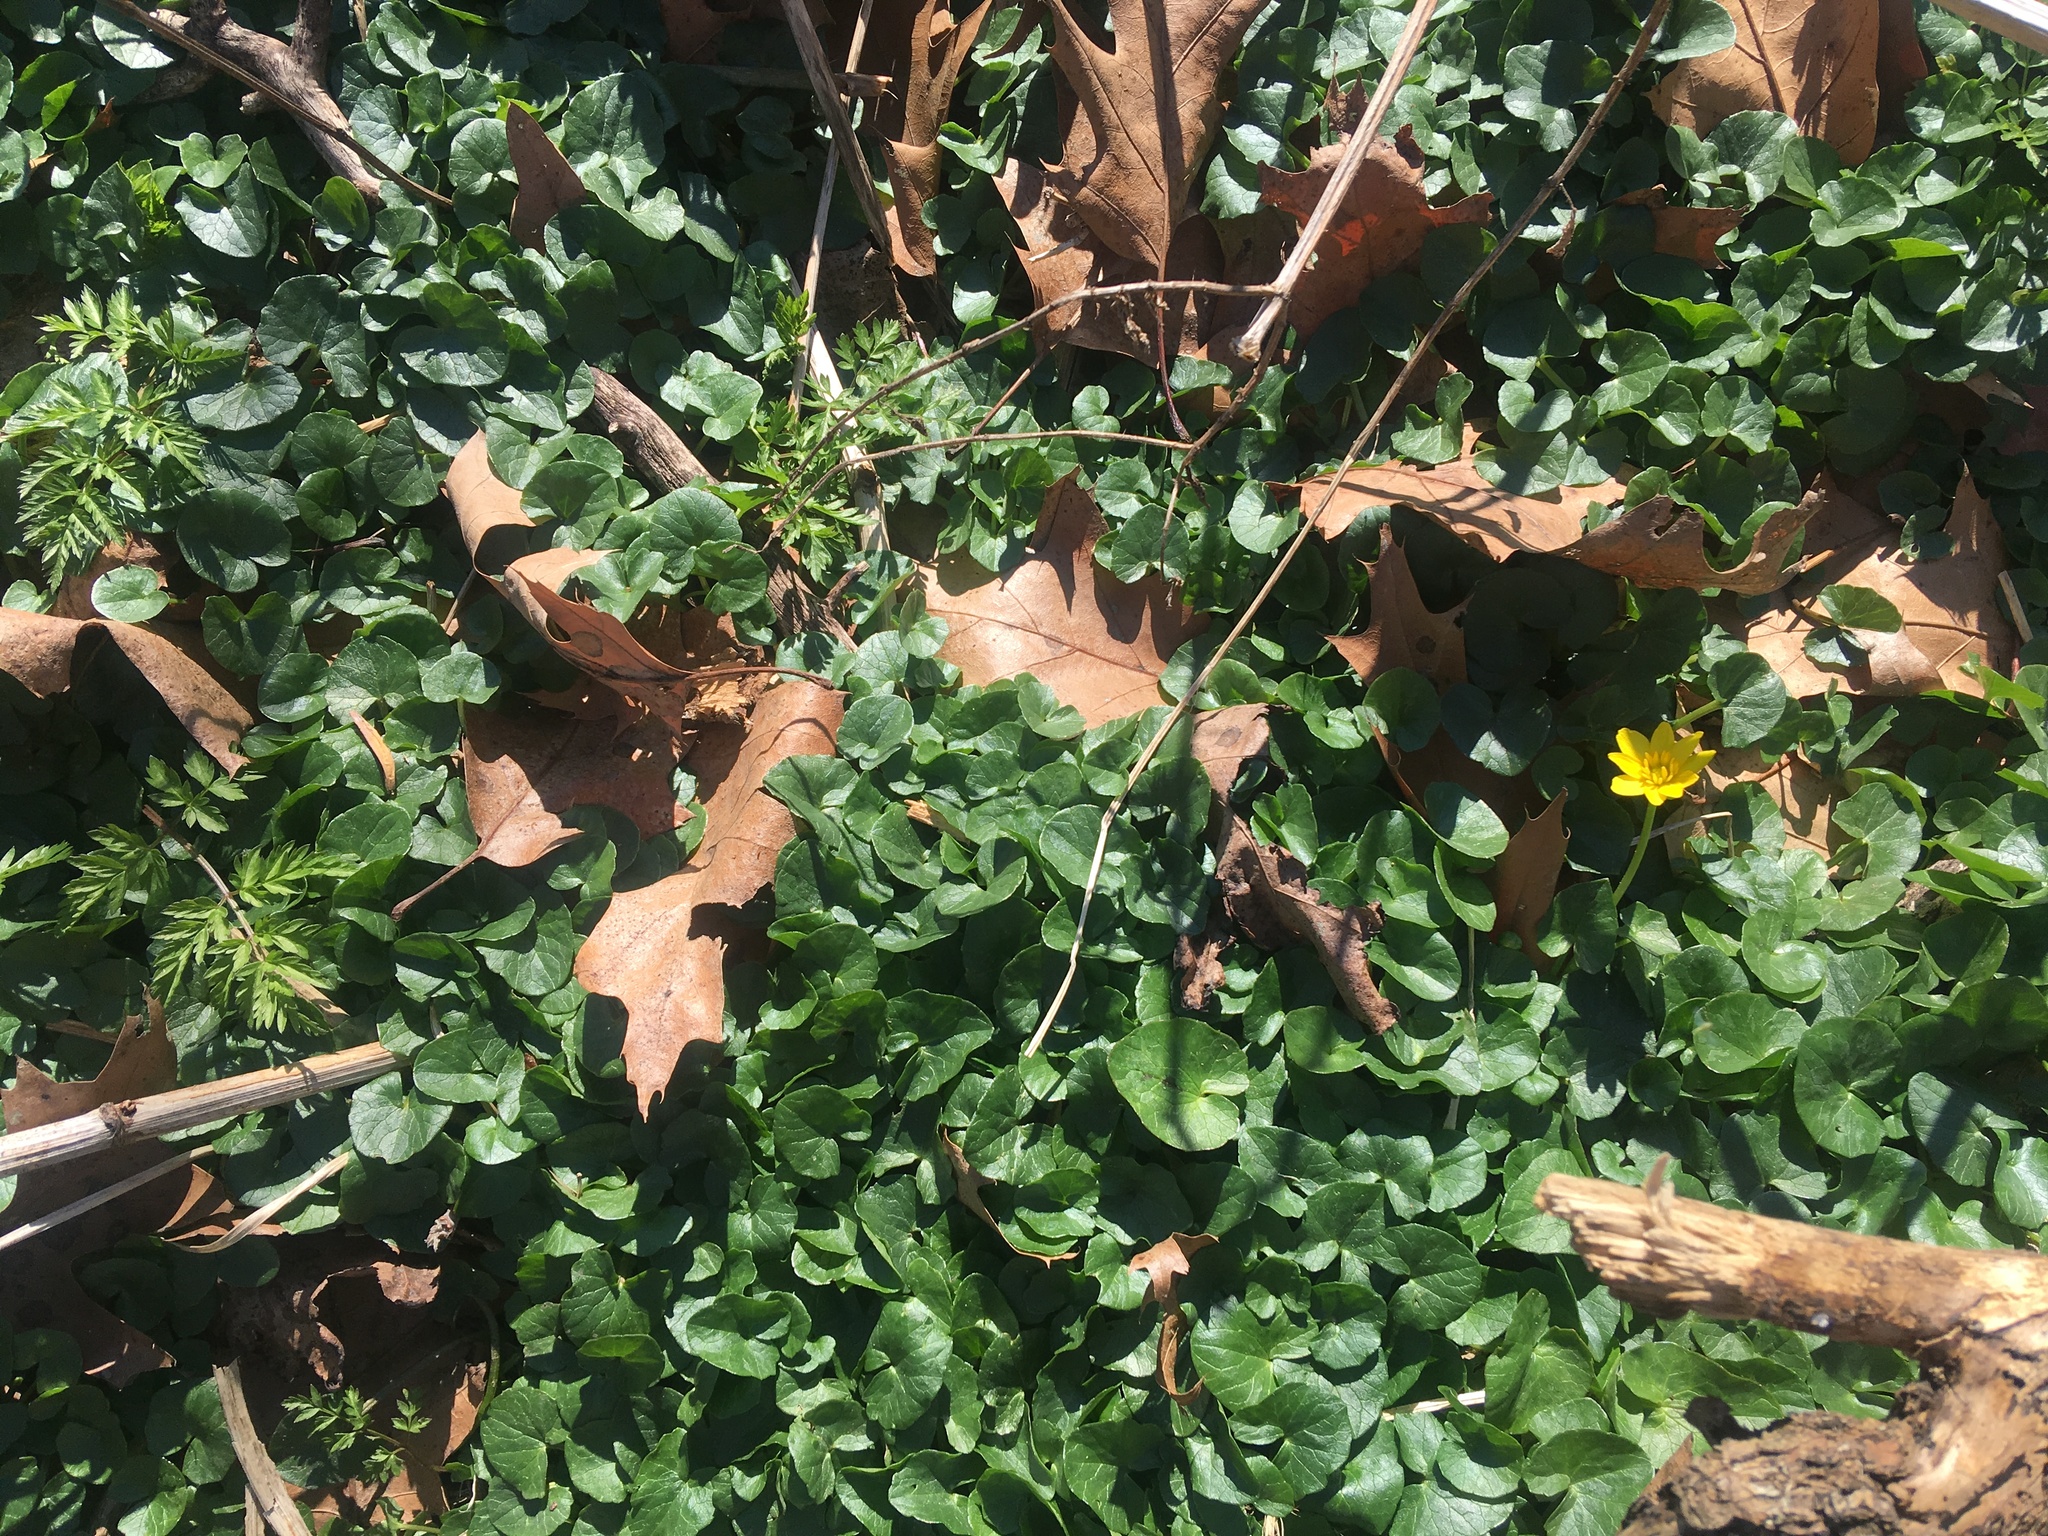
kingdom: Plantae
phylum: Tracheophyta
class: Magnoliopsida
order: Ranunculales
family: Ranunculaceae
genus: Ficaria
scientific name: Ficaria verna
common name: Lesser celandine
